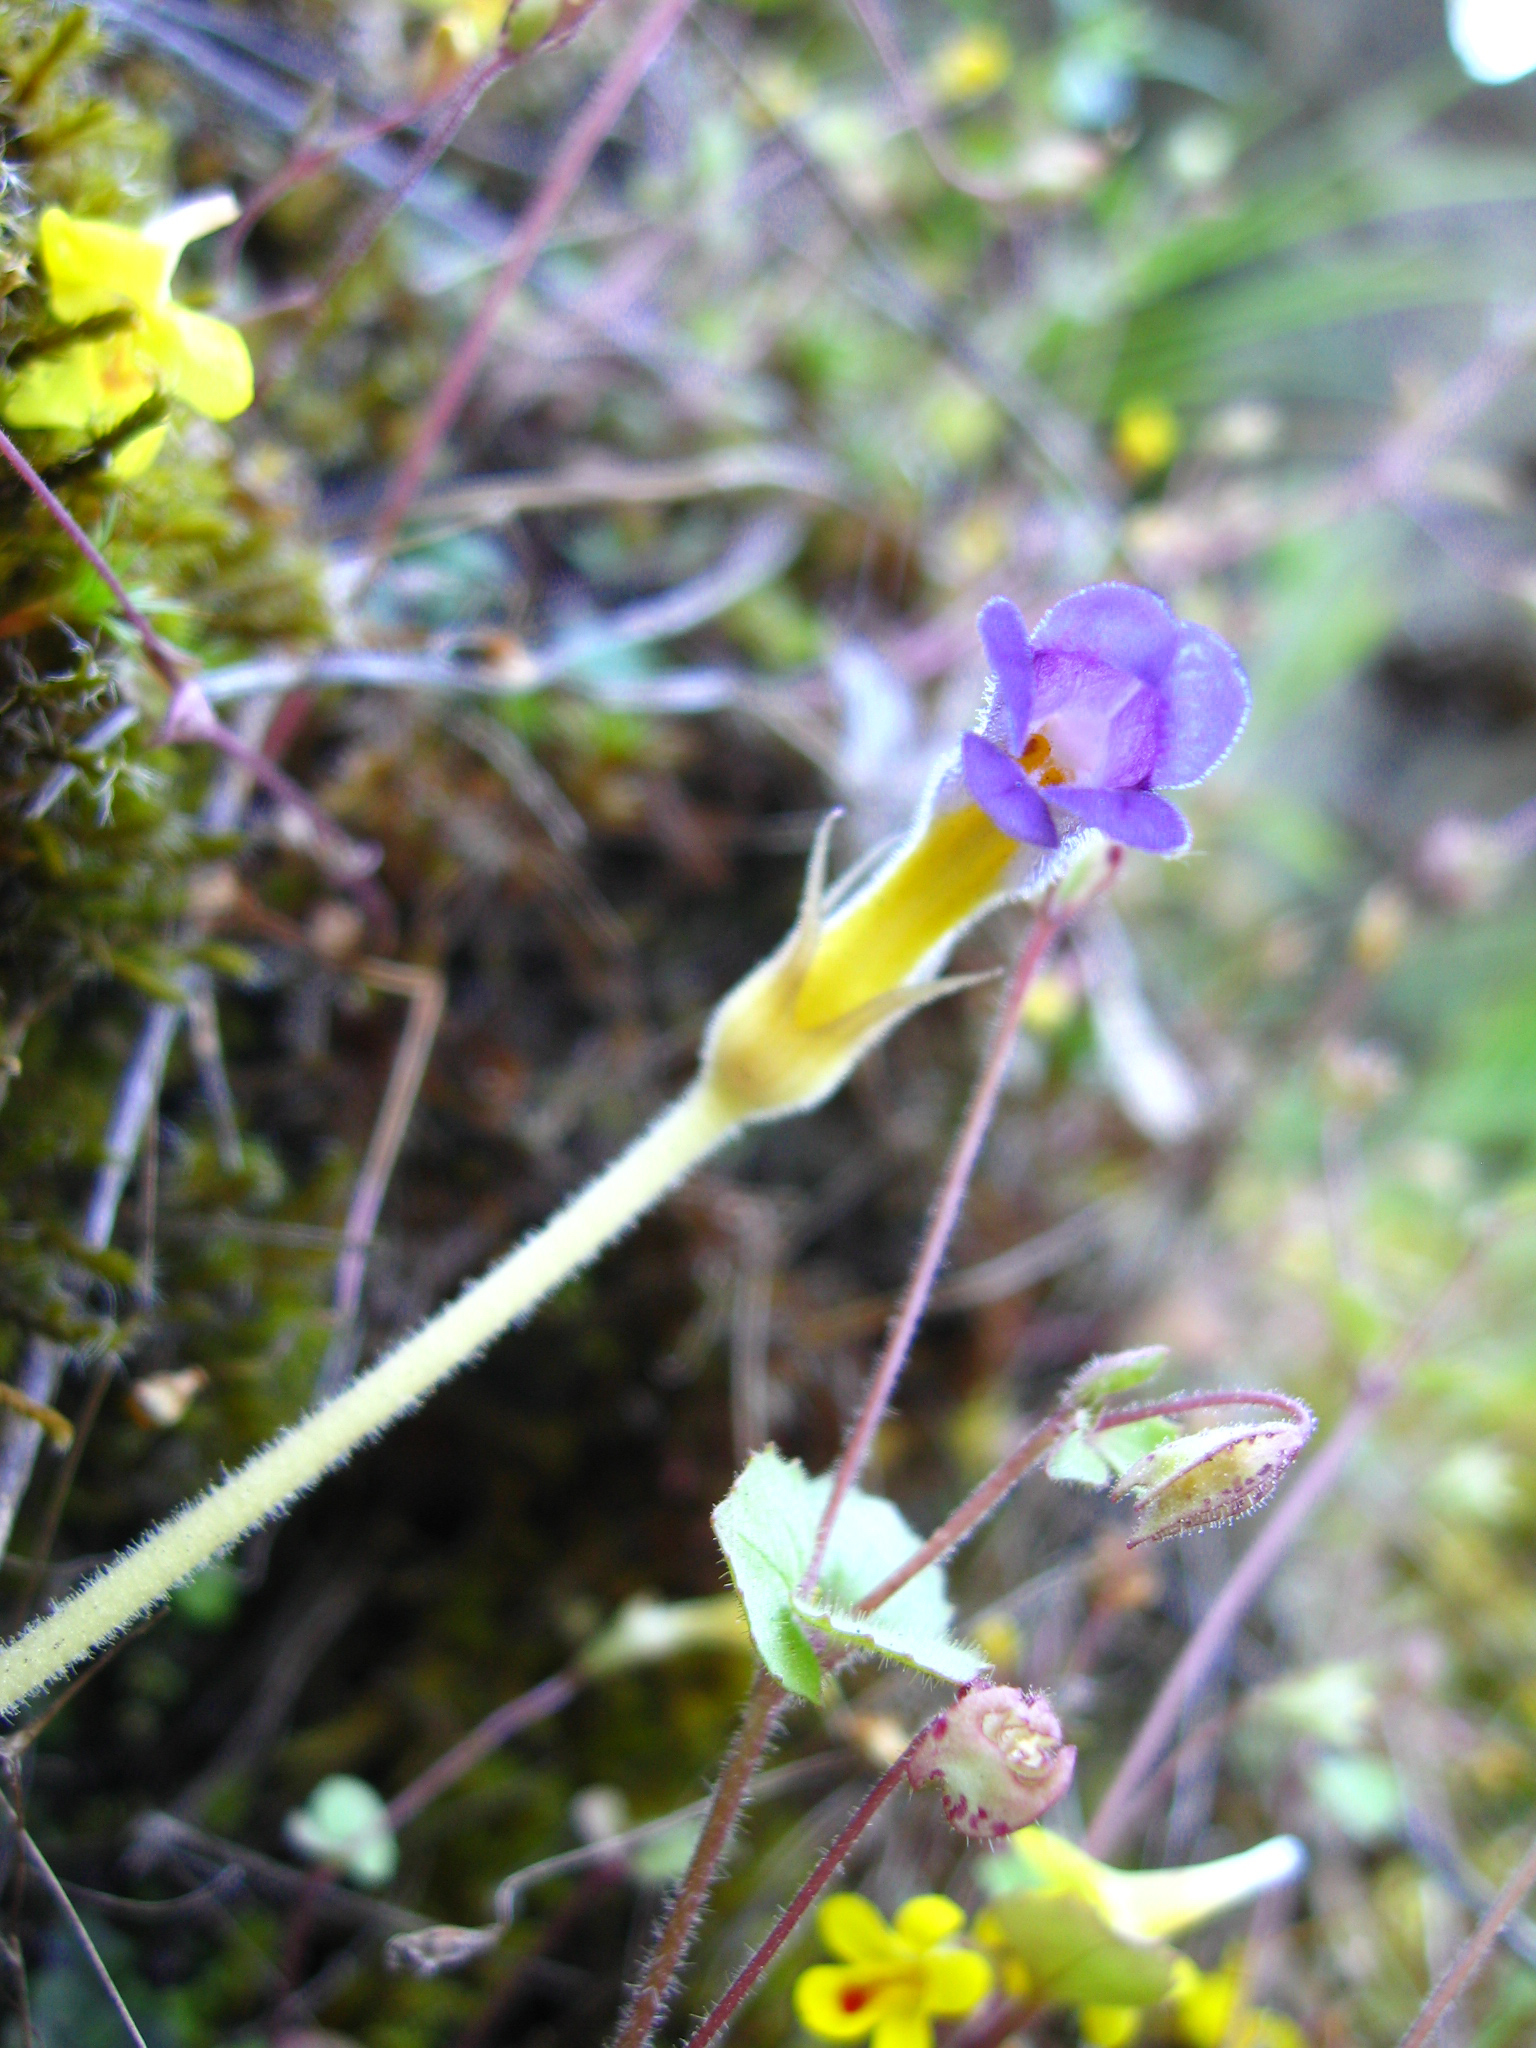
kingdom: Plantae
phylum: Tracheophyta
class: Magnoliopsida
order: Lamiales
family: Orobanchaceae
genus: Aphyllon
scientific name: Aphyllon uniflorum
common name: One-flowered broomrape
